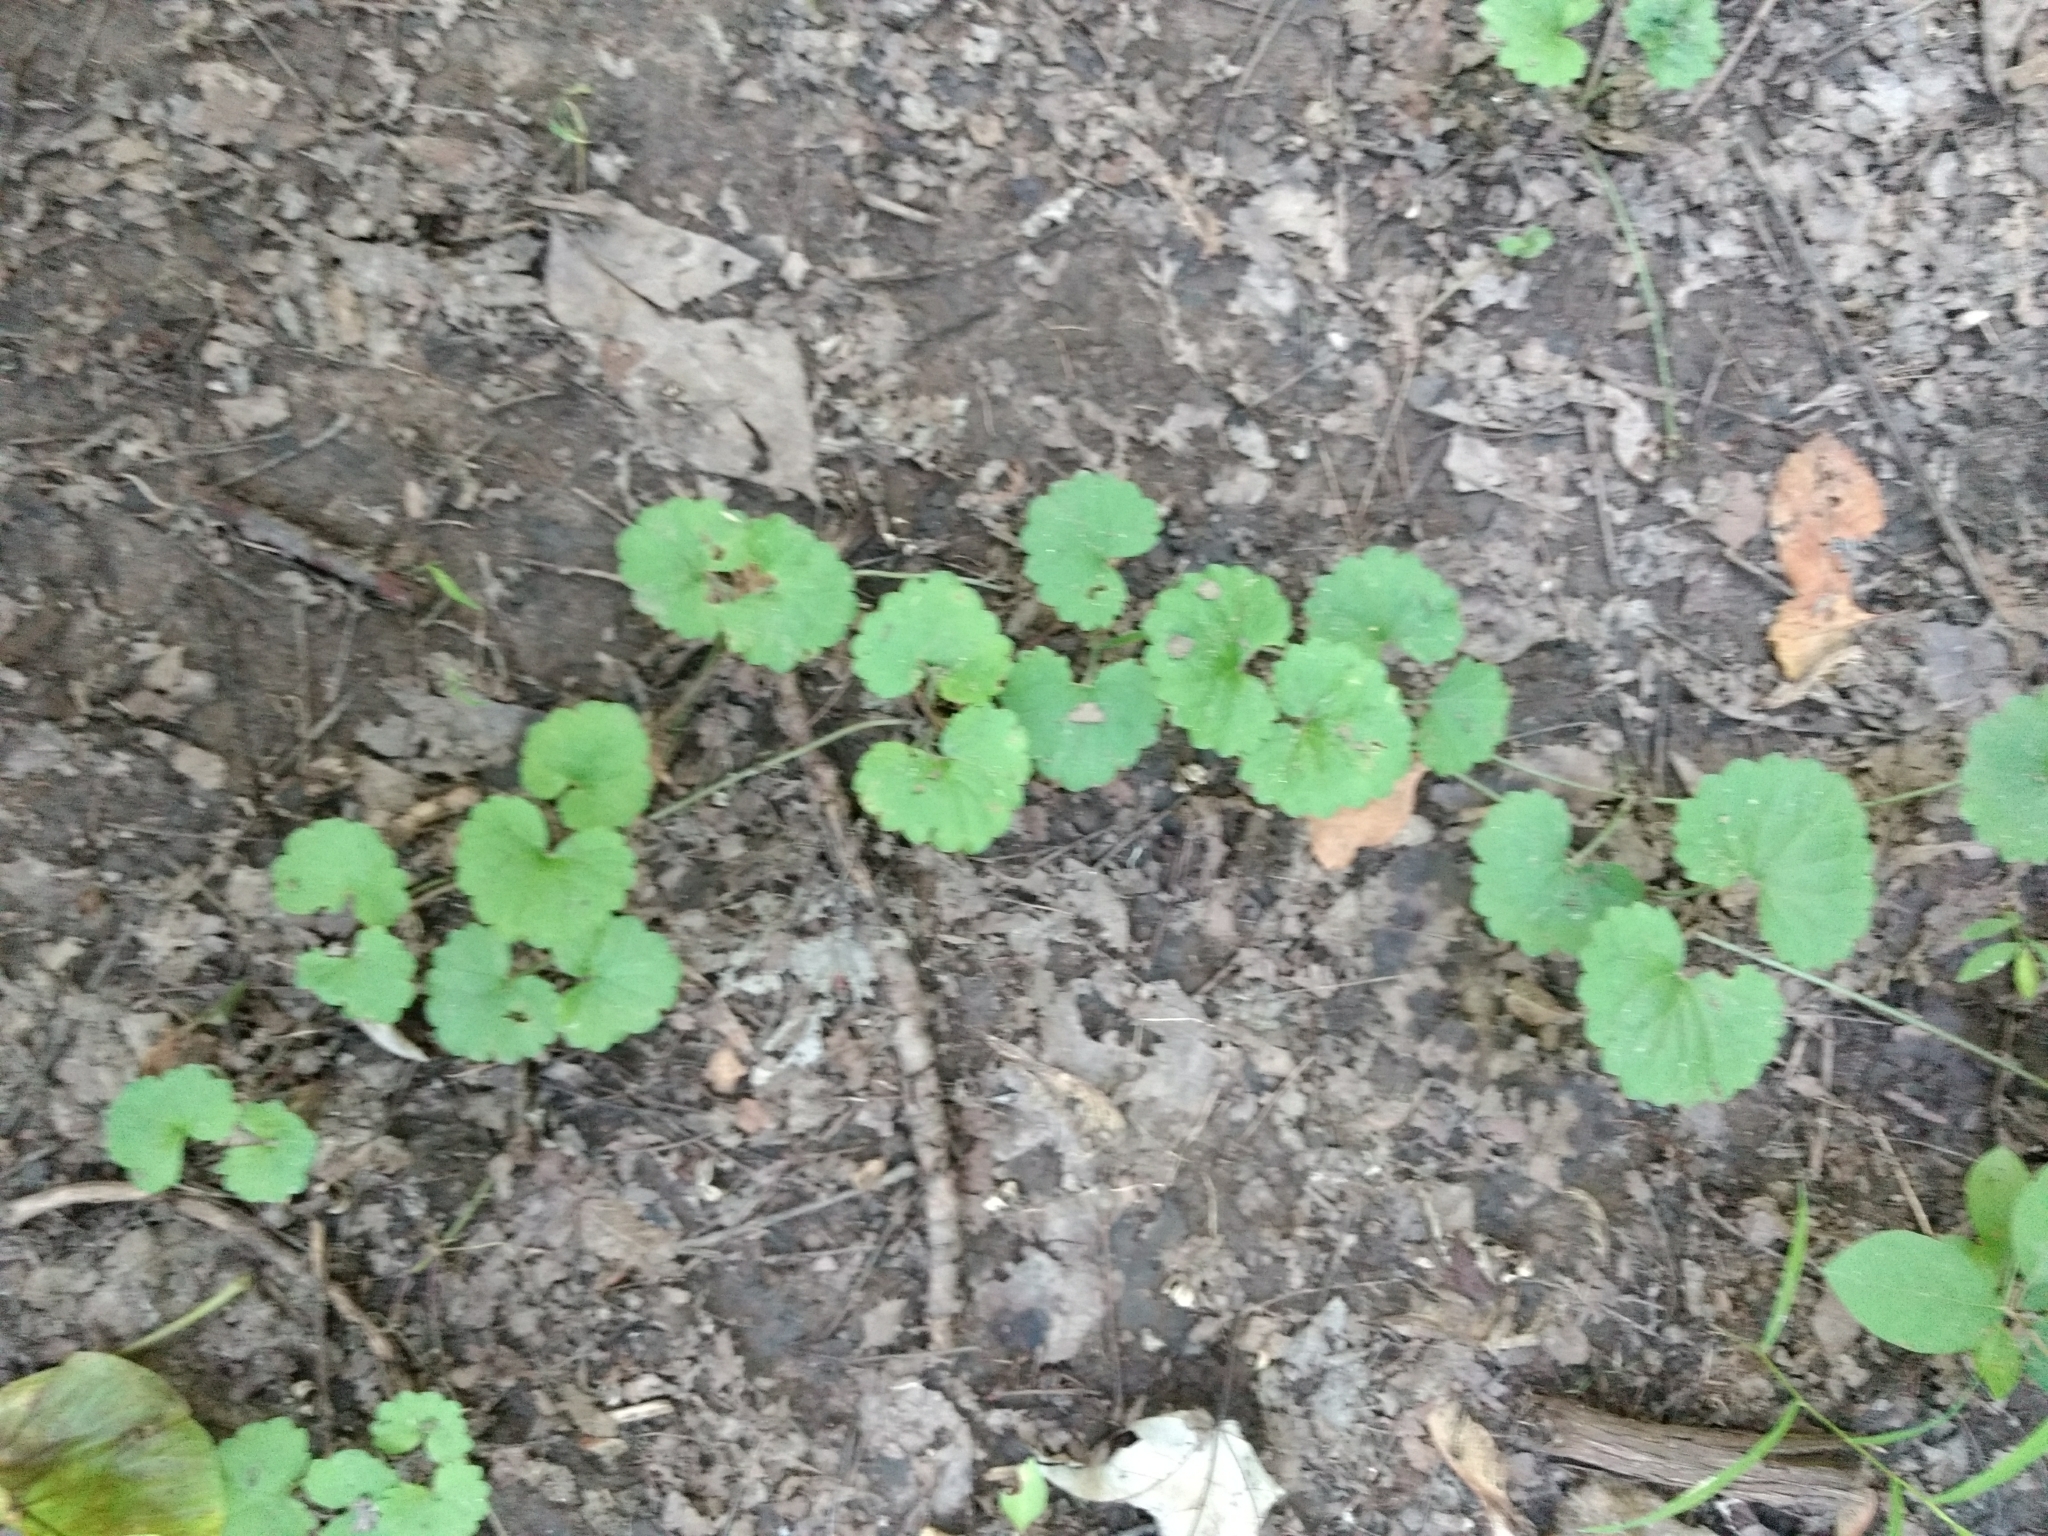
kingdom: Plantae
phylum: Tracheophyta
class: Magnoliopsida
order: Lamiales
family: Lamiaceae
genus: Glechoma
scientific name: Glechoma hederacea
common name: Ground ivy
